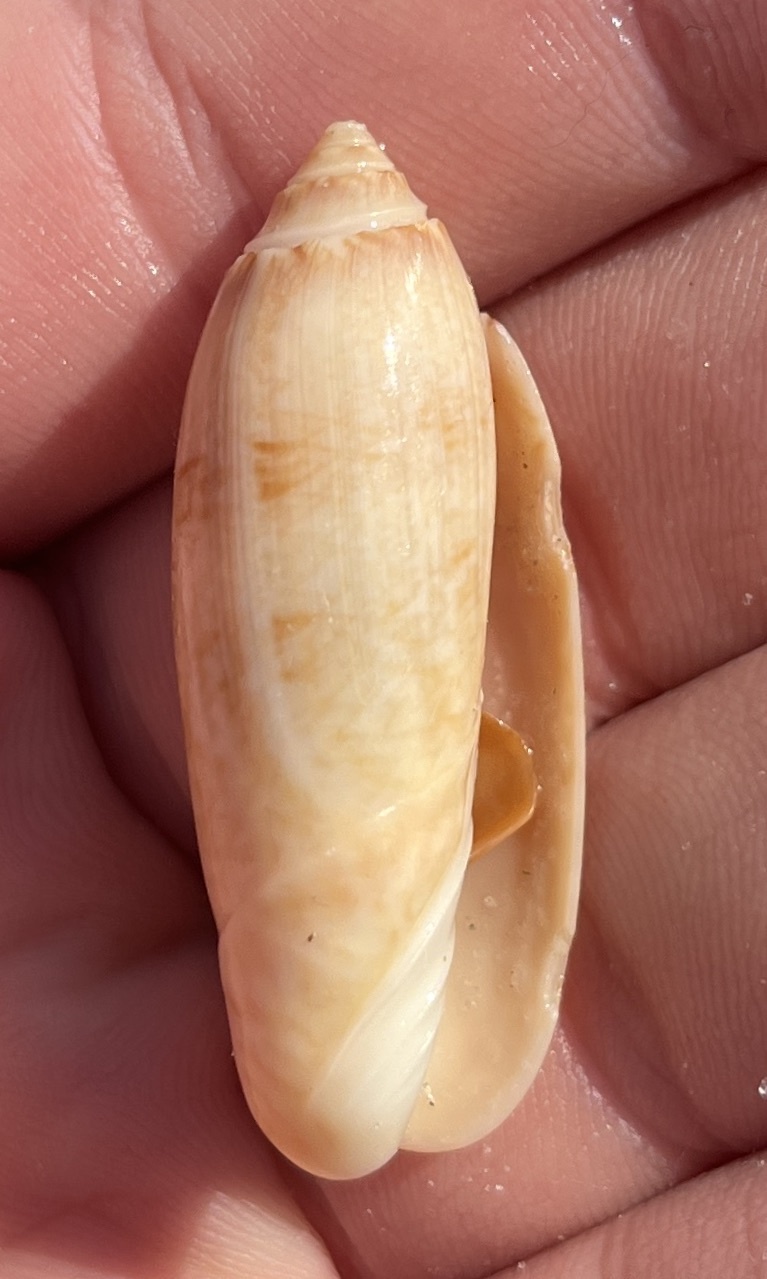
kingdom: Animalia
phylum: Mollusca
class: Gastropoda
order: Neogastropoda
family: Olividae
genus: Oliva
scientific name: Oliva sayana
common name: Lettered olive
